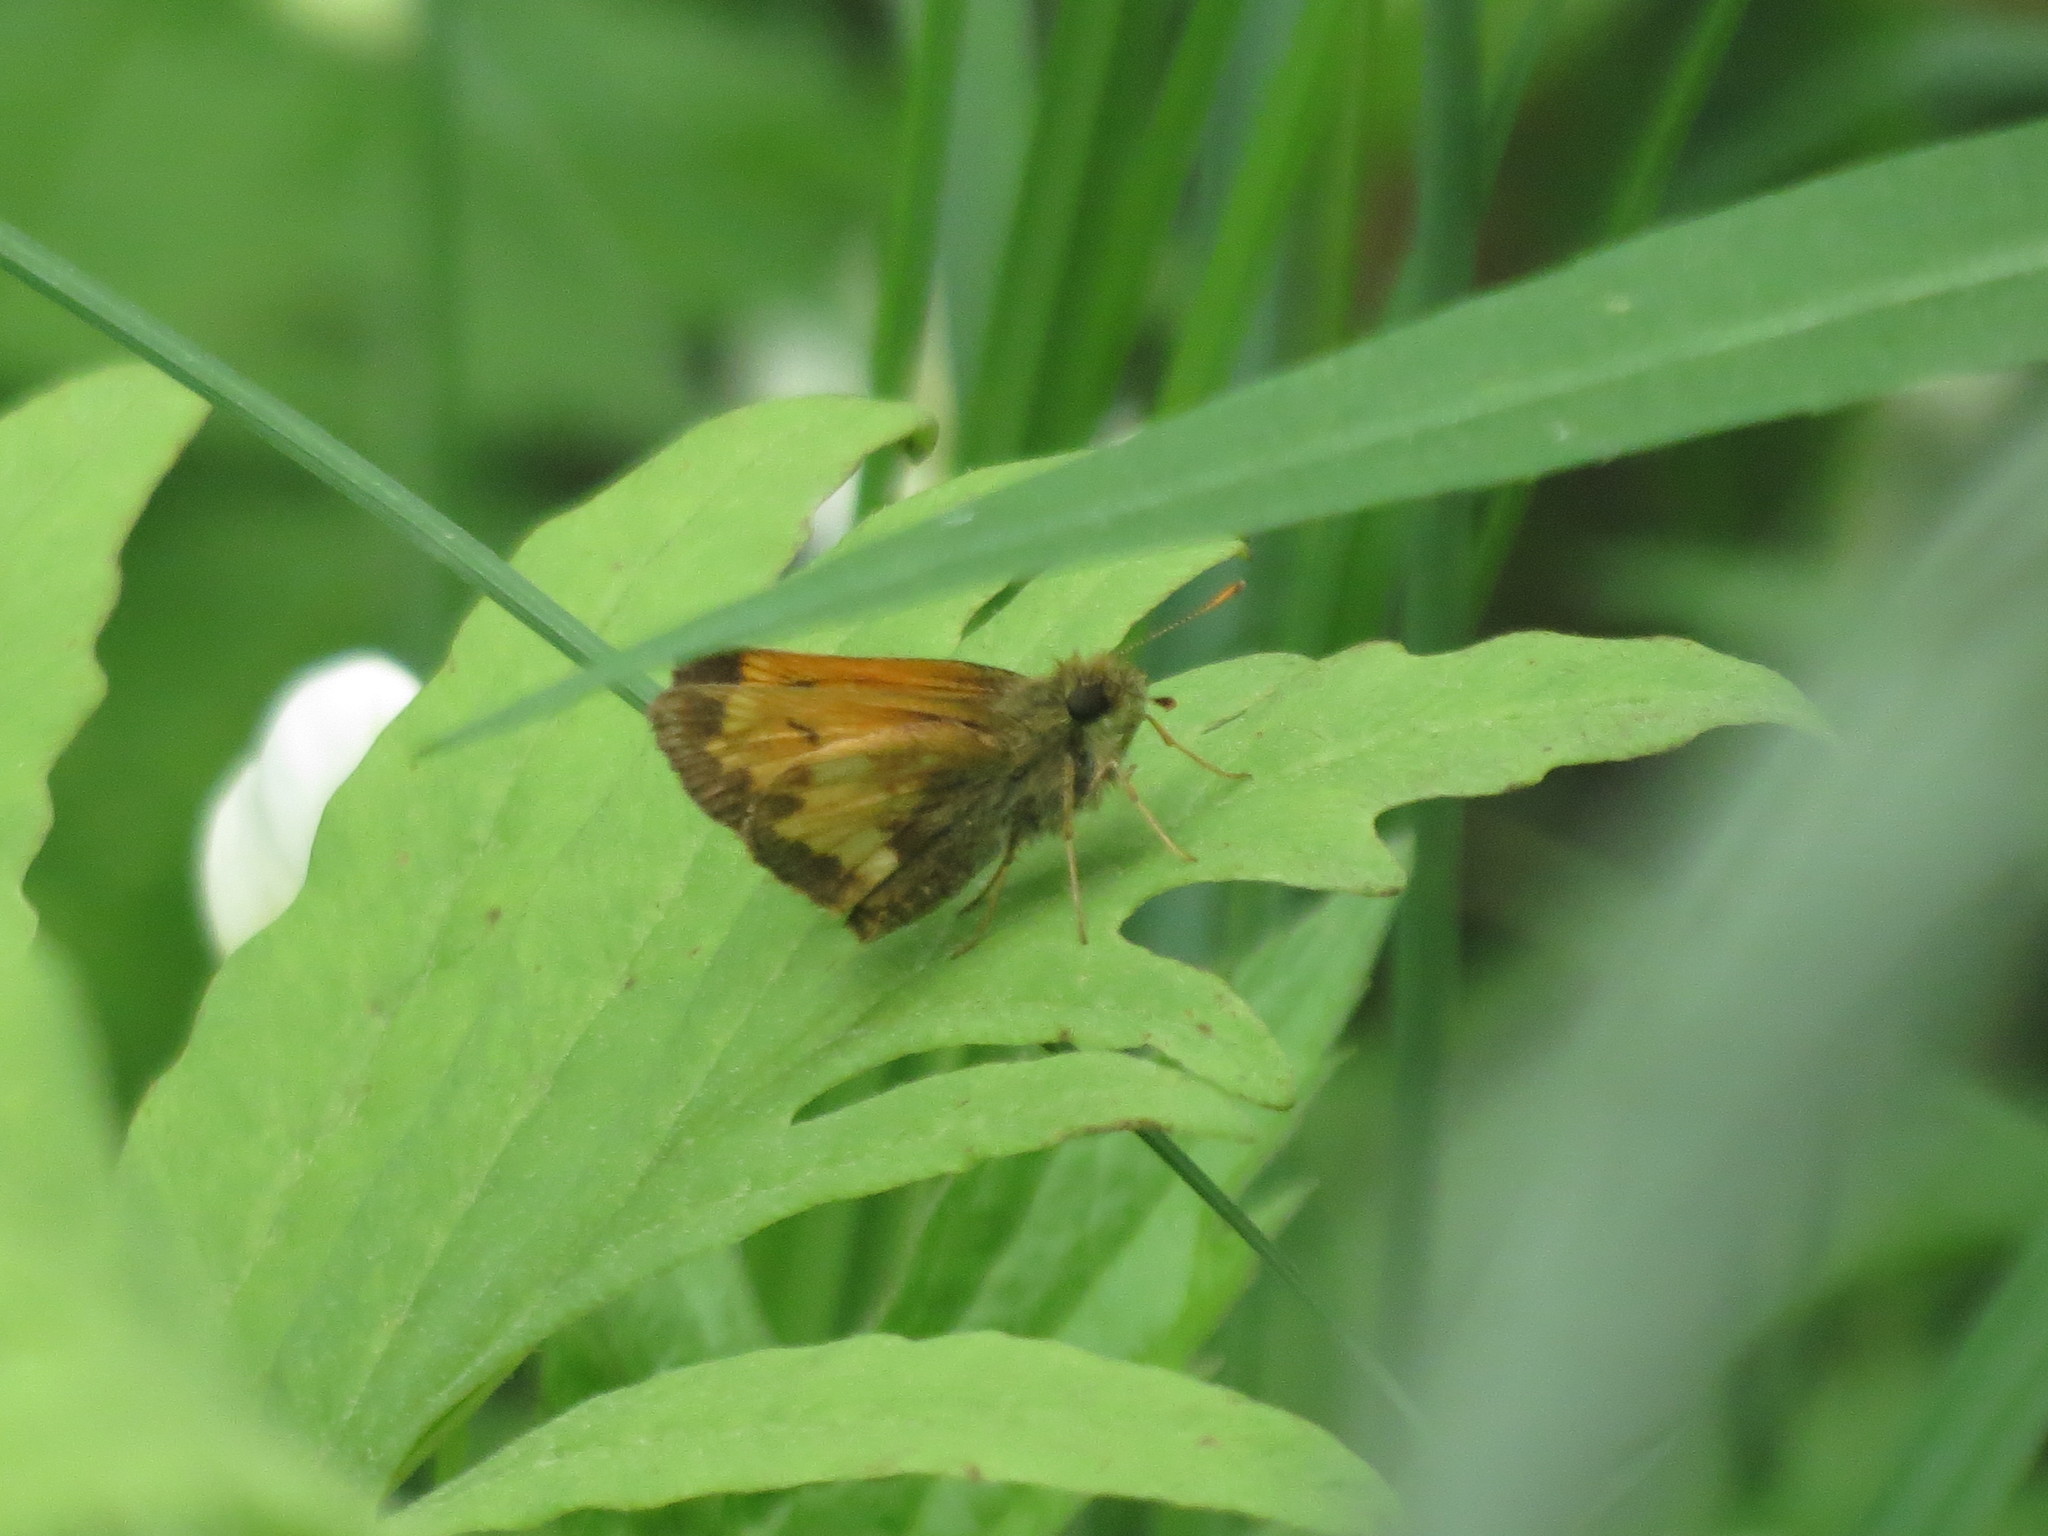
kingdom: Animalia
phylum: Arthropoda
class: Insecta
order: Lepidoptera
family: Hesperiidae
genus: Lon
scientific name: Lon hobomok
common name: Hobomok skipper
